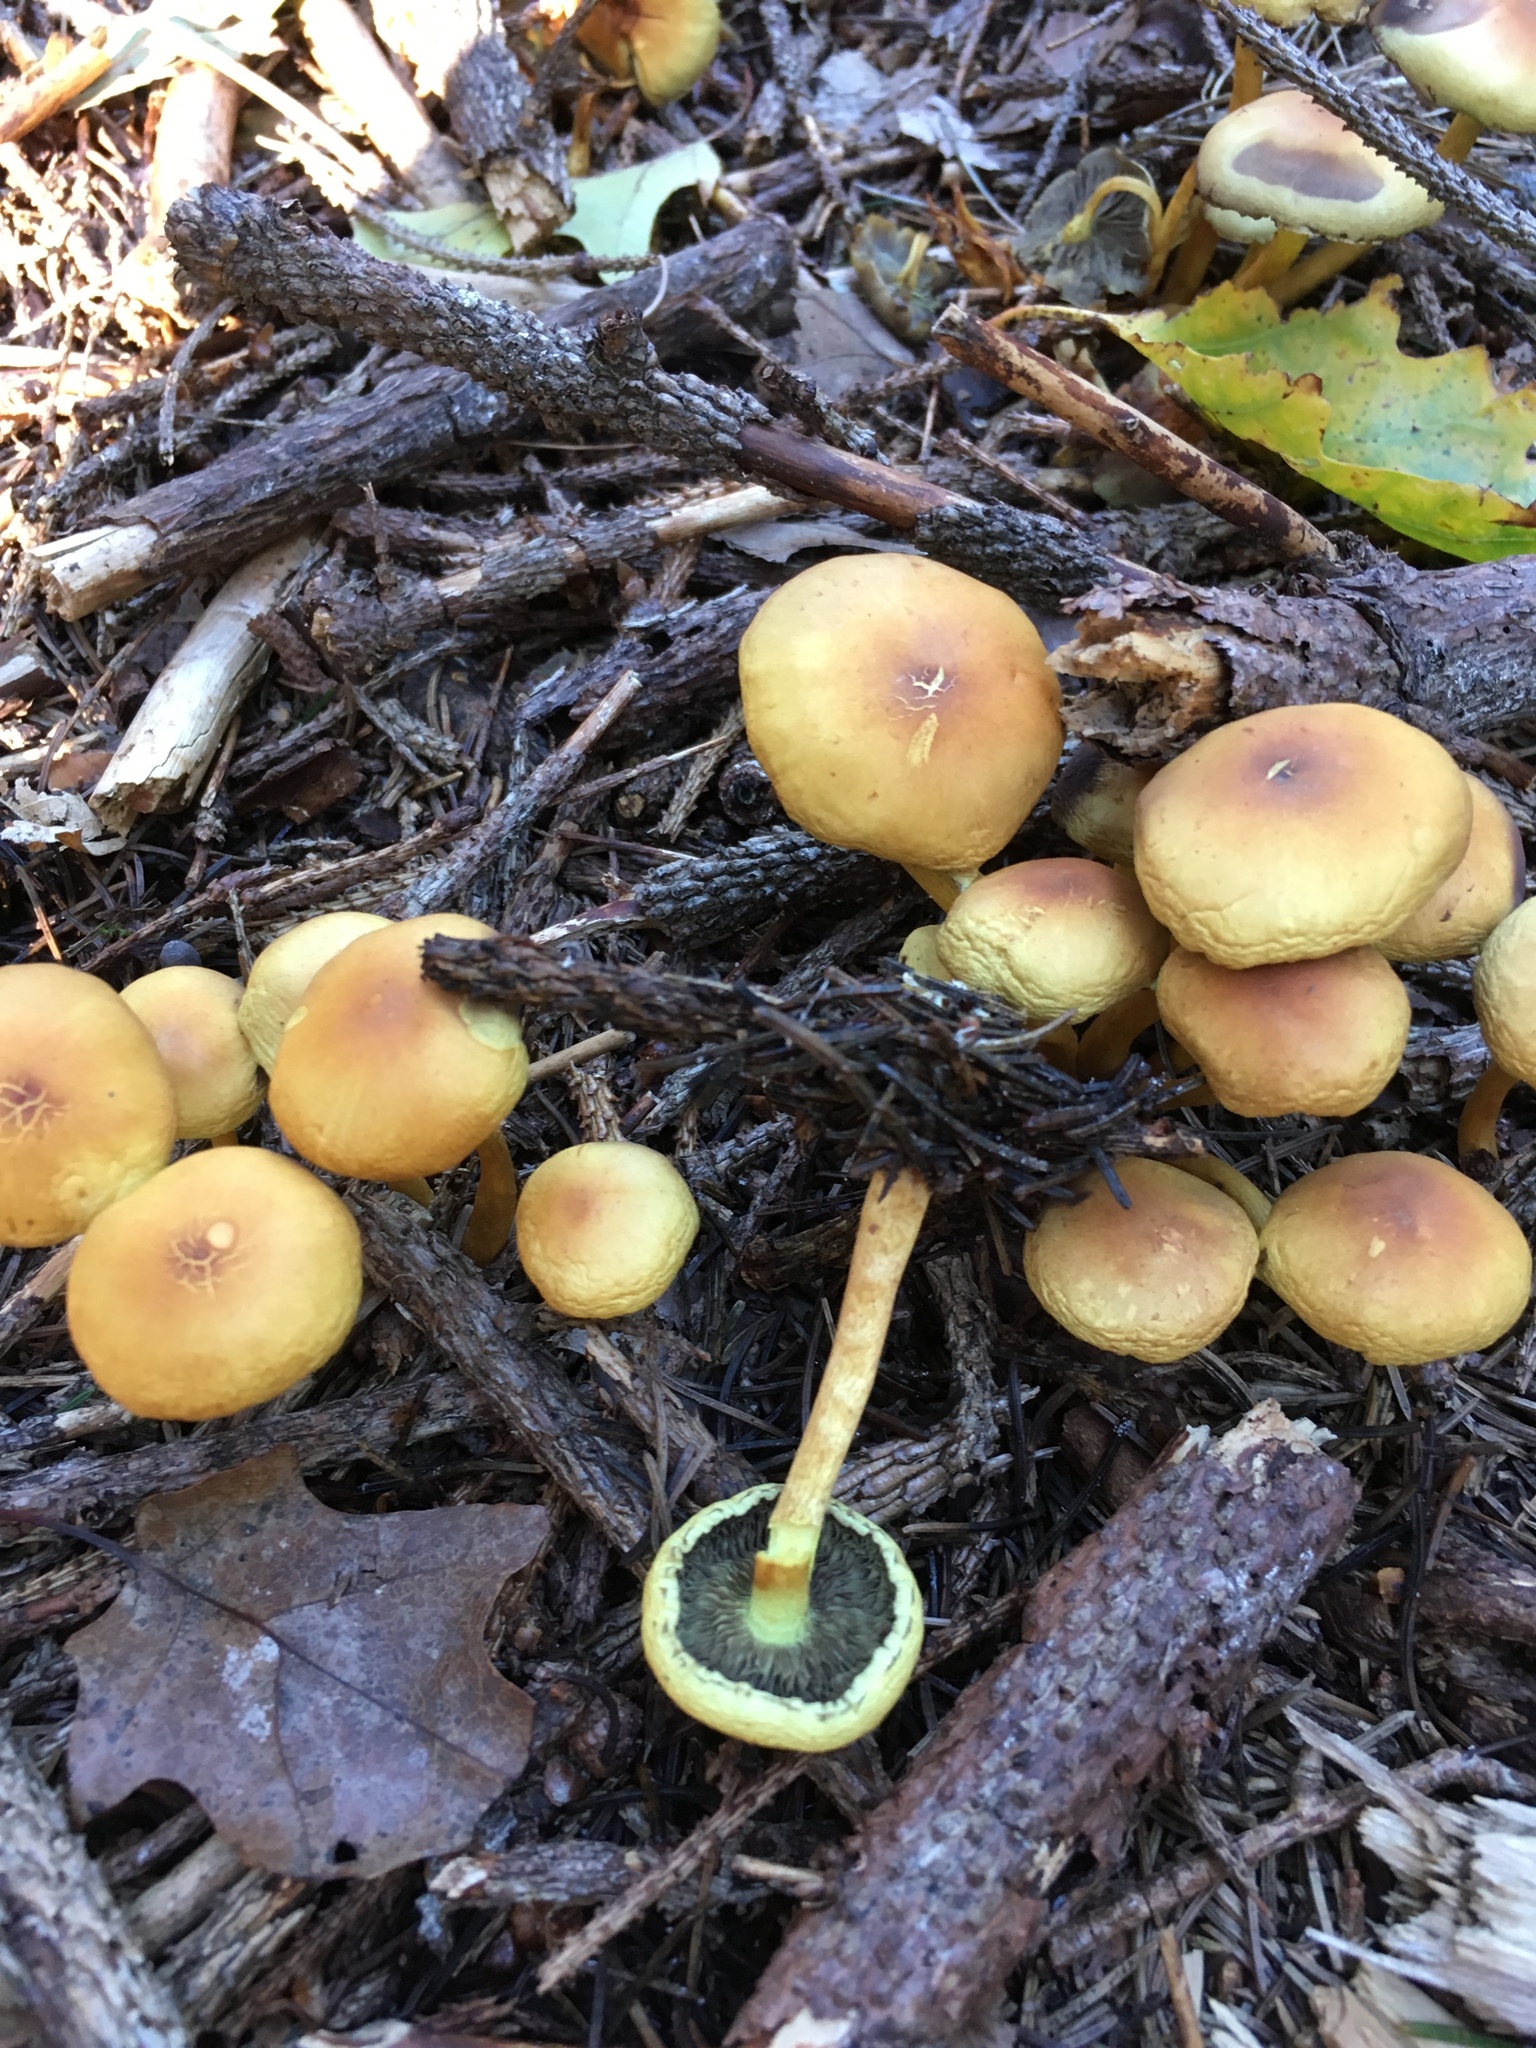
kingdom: Fungi
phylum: Basidiomycota
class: Agaricomycetes
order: Agaricales
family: Strophariaceae
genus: Hypholoma
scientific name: Hypholoma fasciculare
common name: Sulphur tuft
